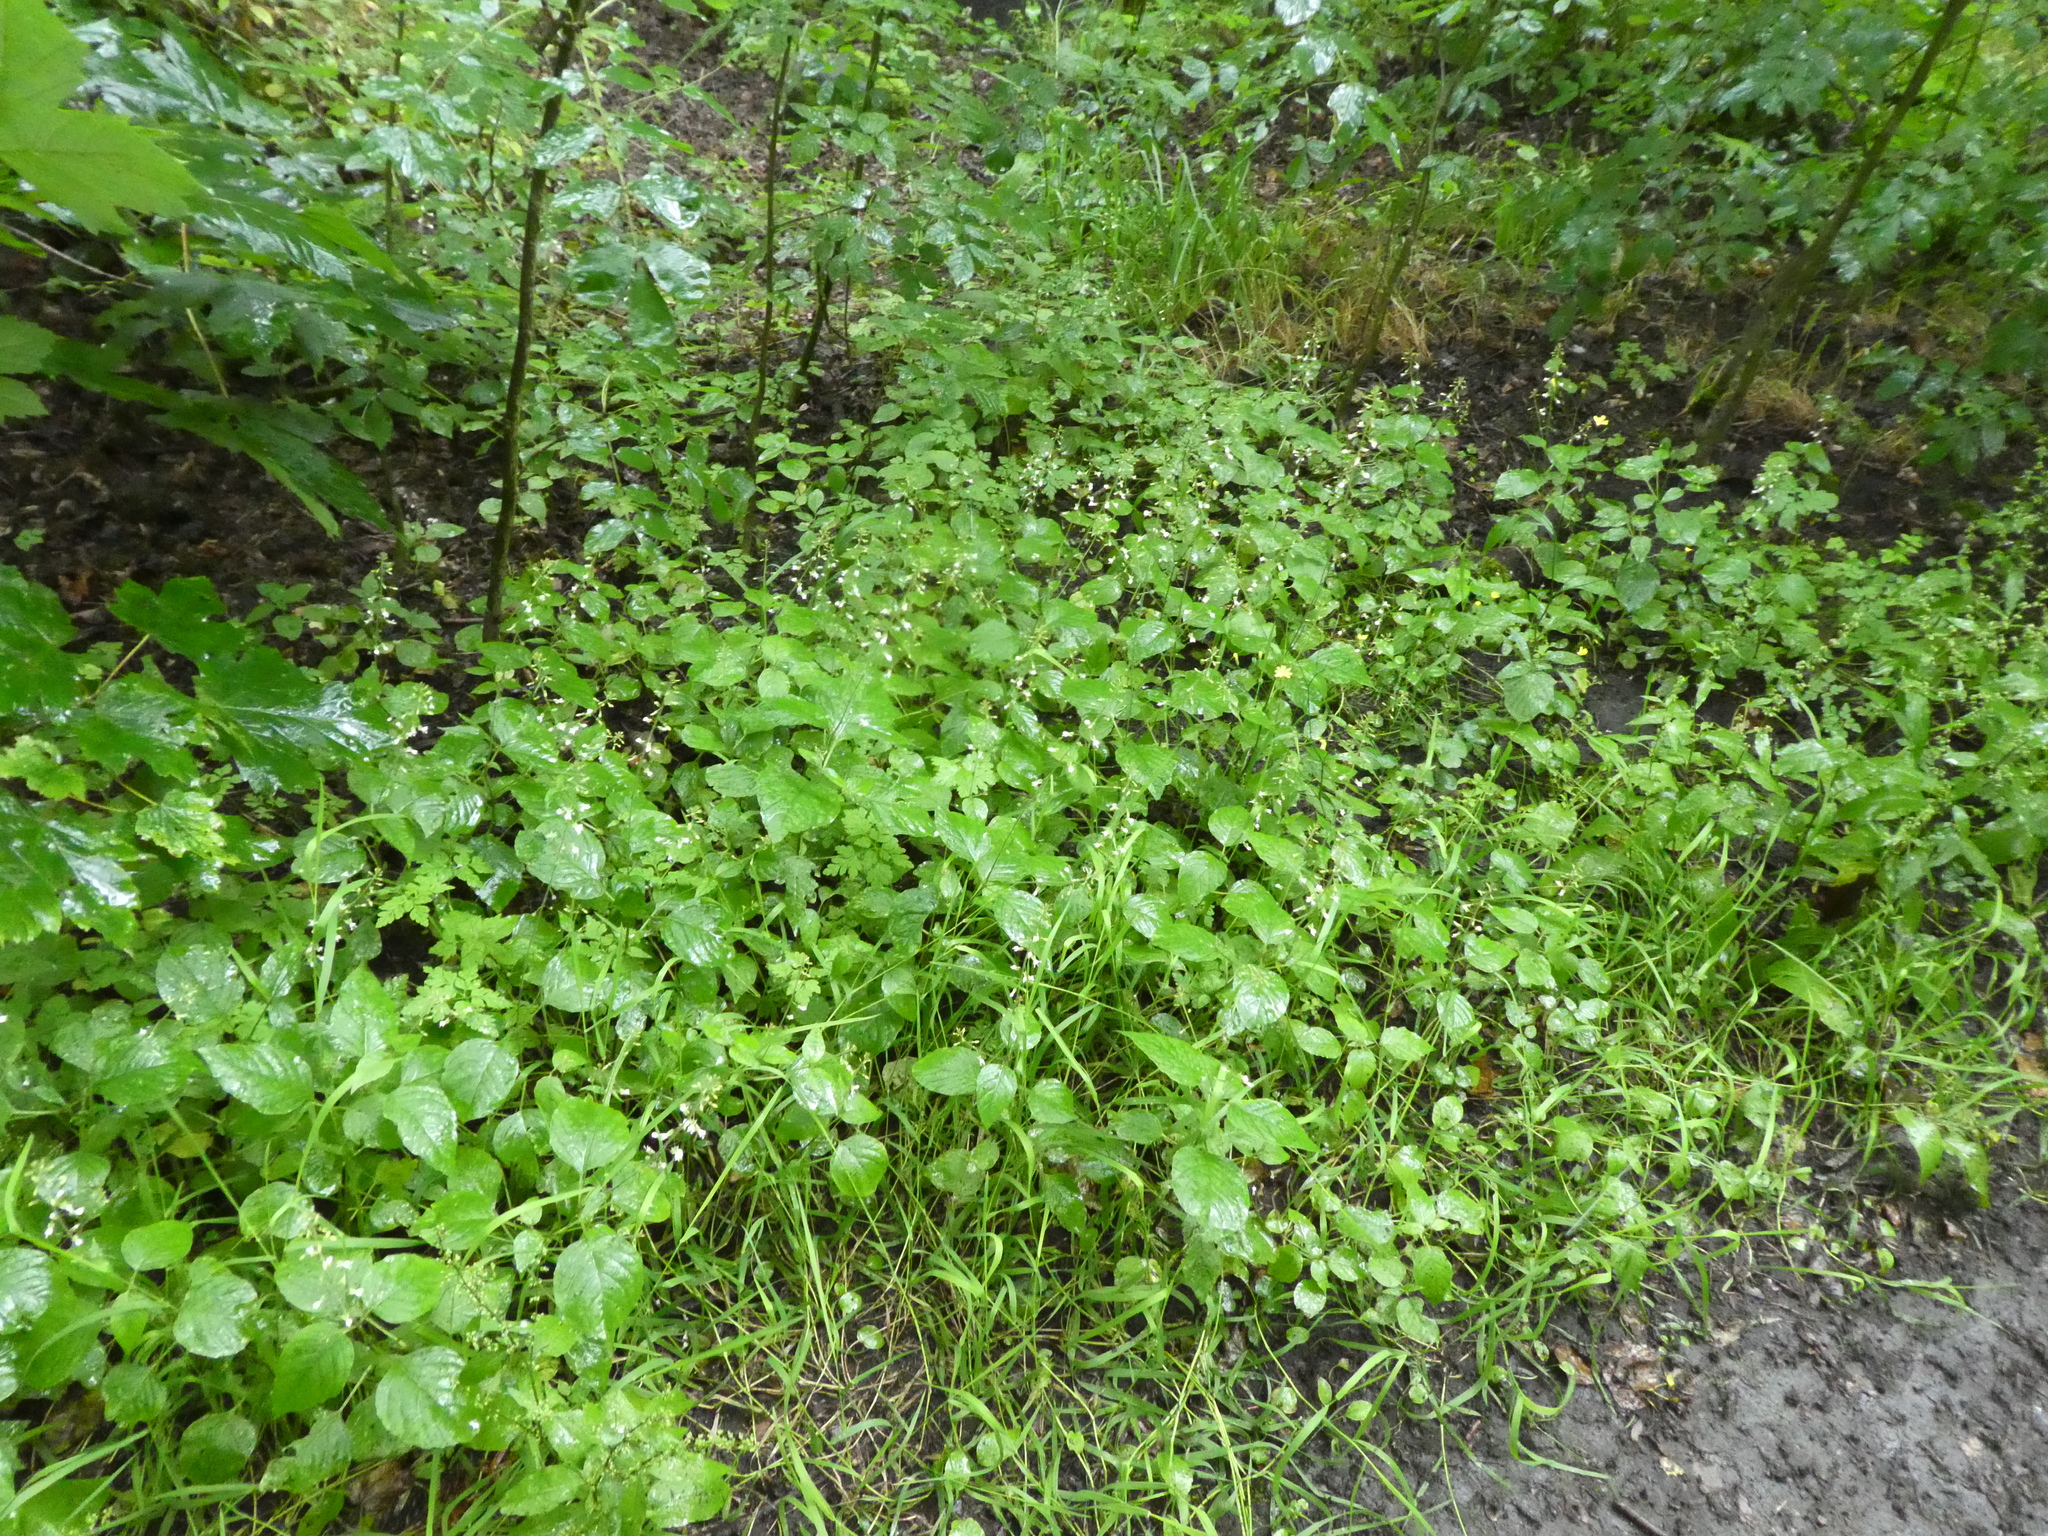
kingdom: Plantae
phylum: Tracheophyta
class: Magnoliopsida
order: Myrtales
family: Onagraceae
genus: Circaea
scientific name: Circaea lutetiana
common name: Enchanter's-nightshade
